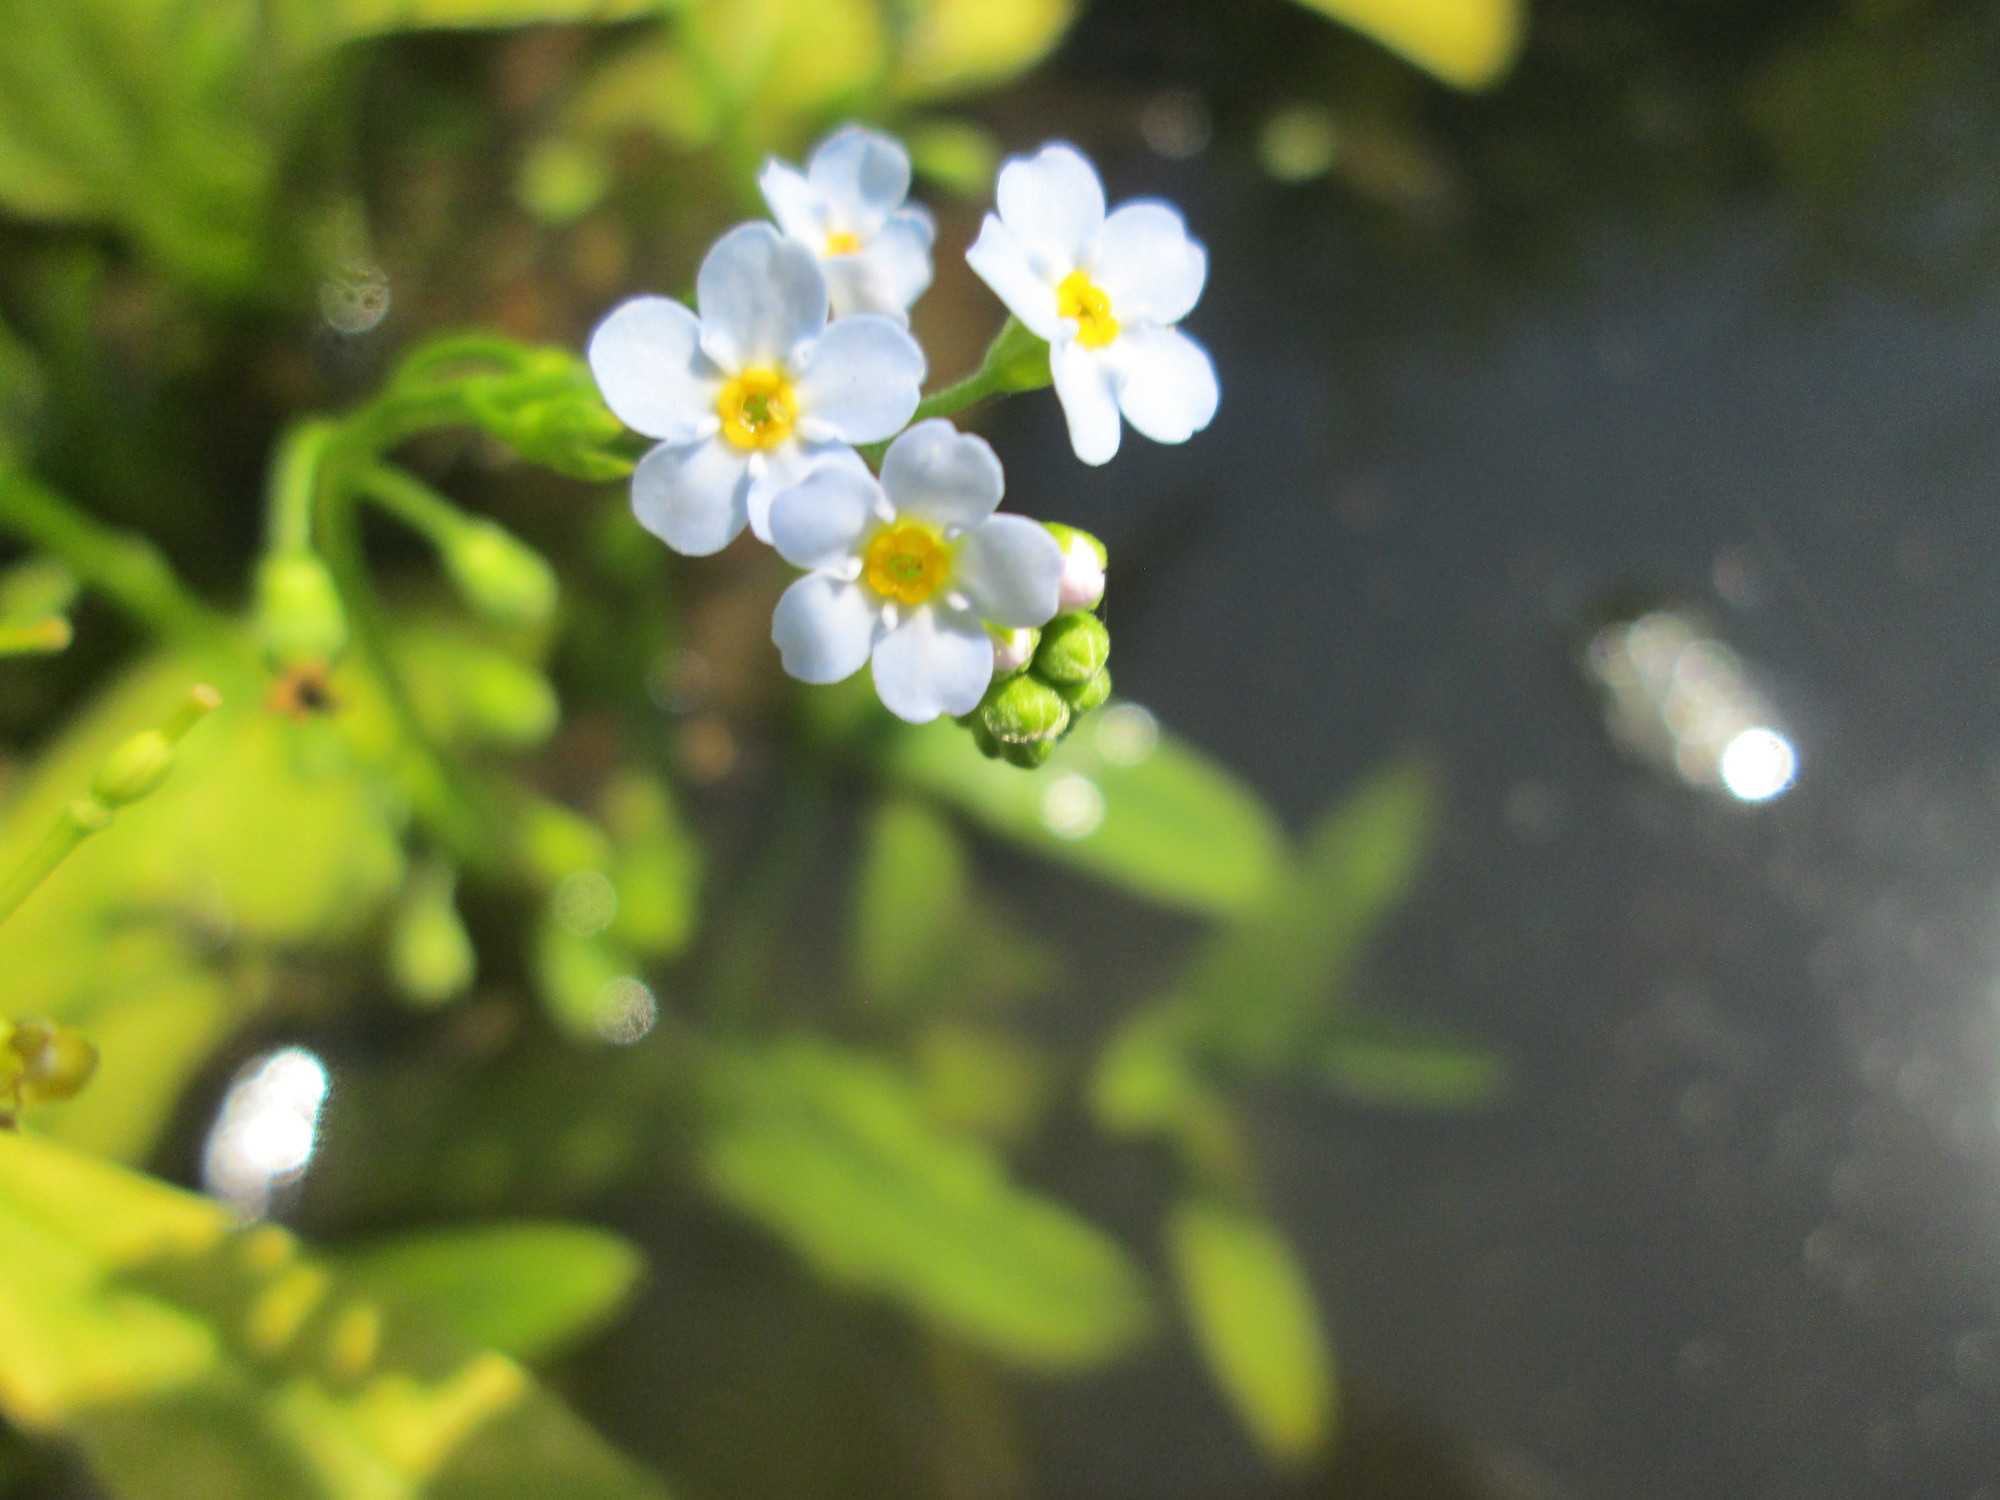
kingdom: Plantae
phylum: Tracheophyta
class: Magnoliopsida
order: Boraginales
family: Boraginaceae
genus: Myosotis
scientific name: Myosotis scorpioides
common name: Water forget-me-not
